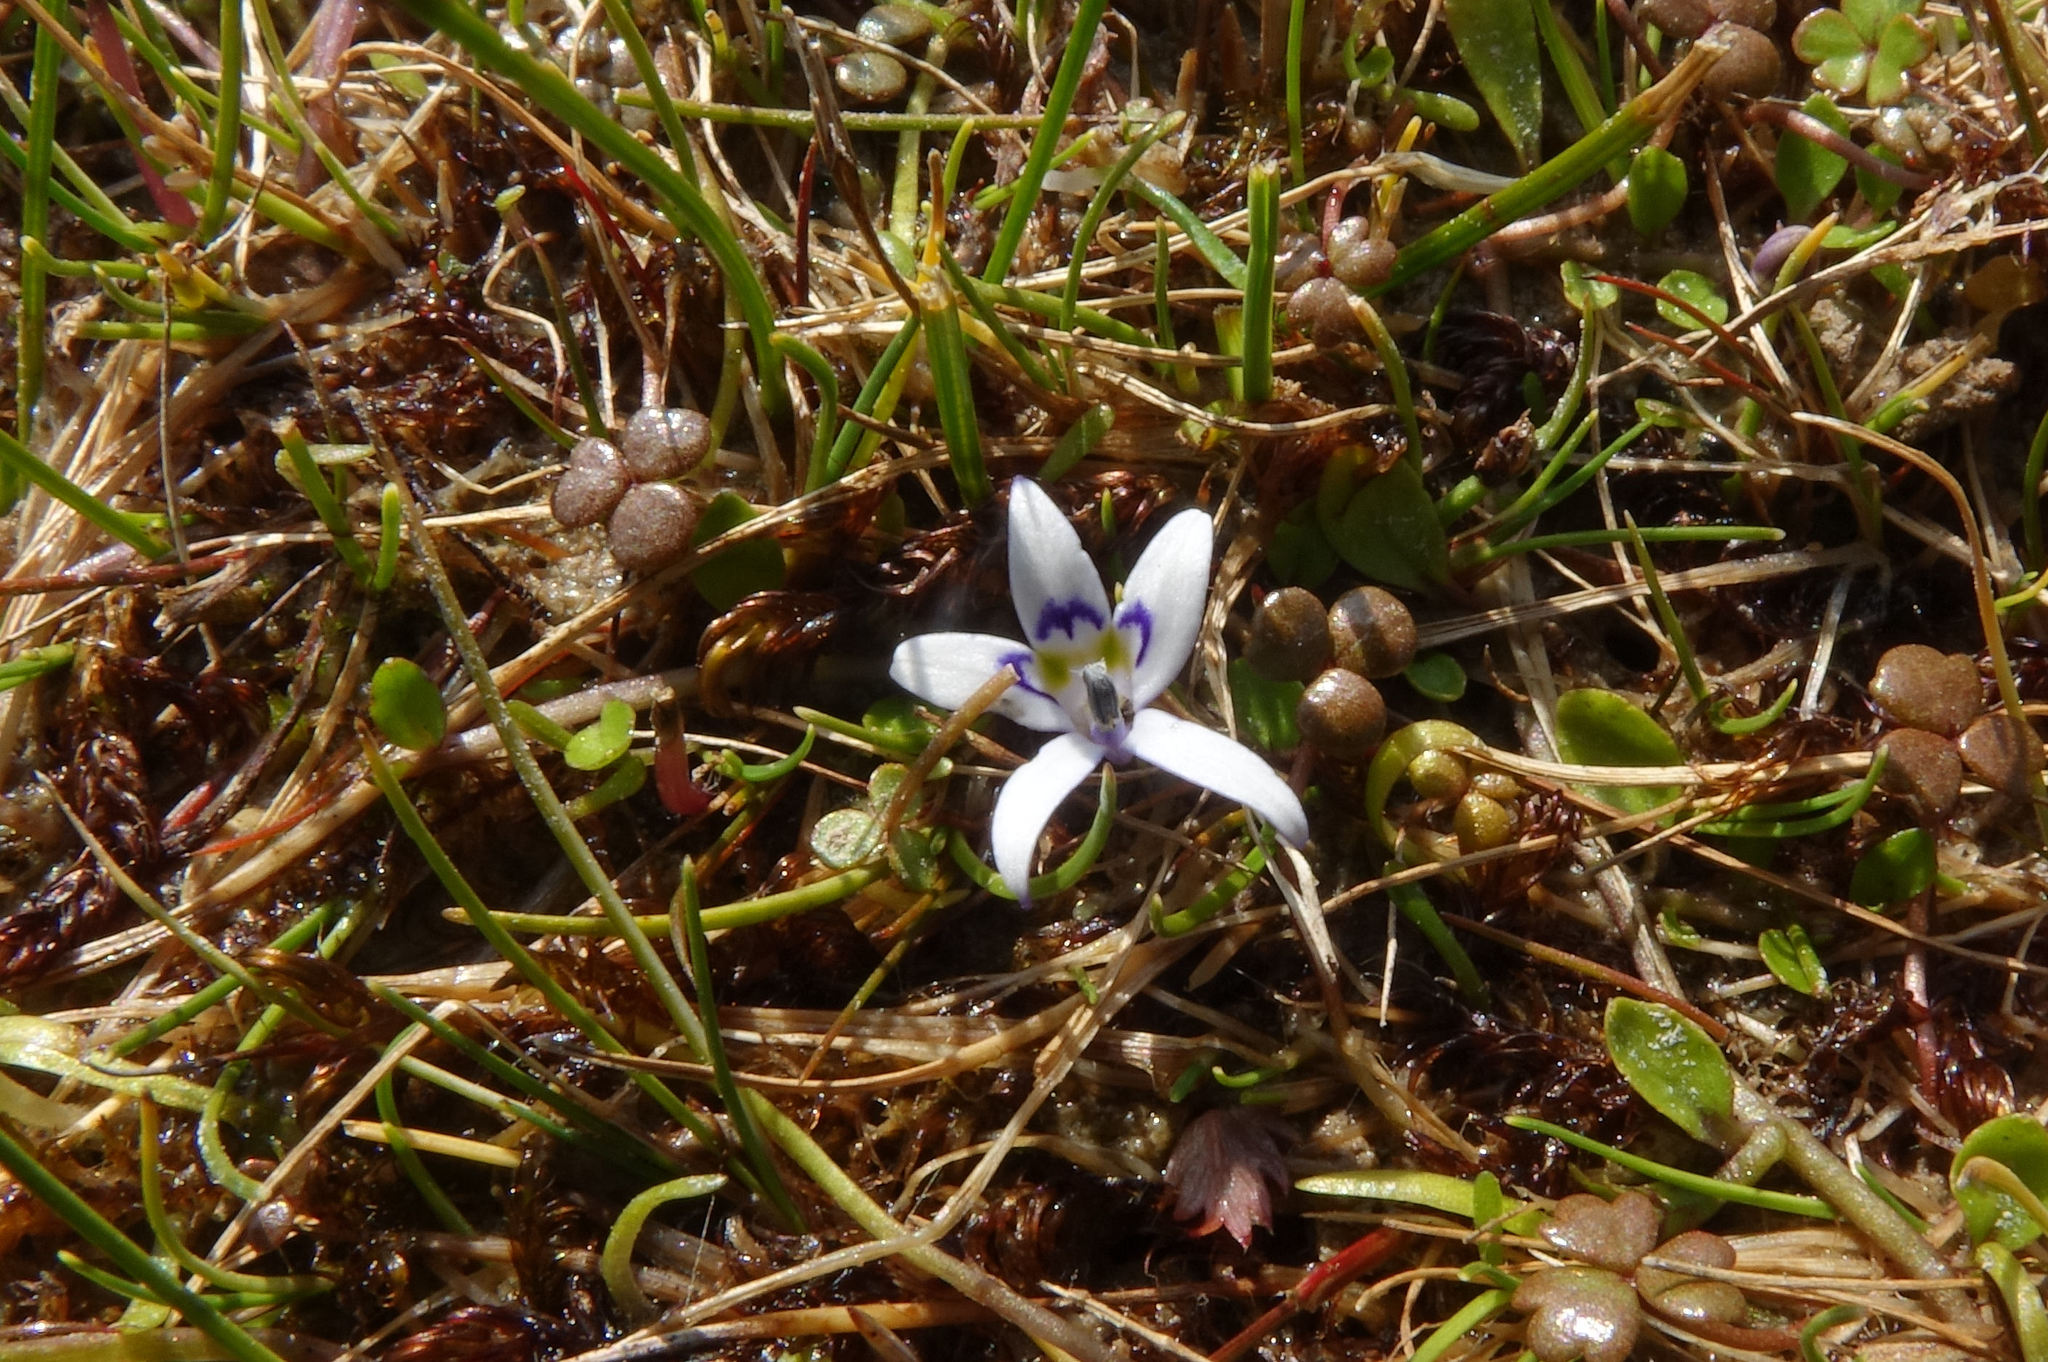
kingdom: Plantae
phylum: Tracheophyta
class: Magnoliopsida
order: Asterales
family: Campanulaceae
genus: Isotoma
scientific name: Isotoma rivalis
